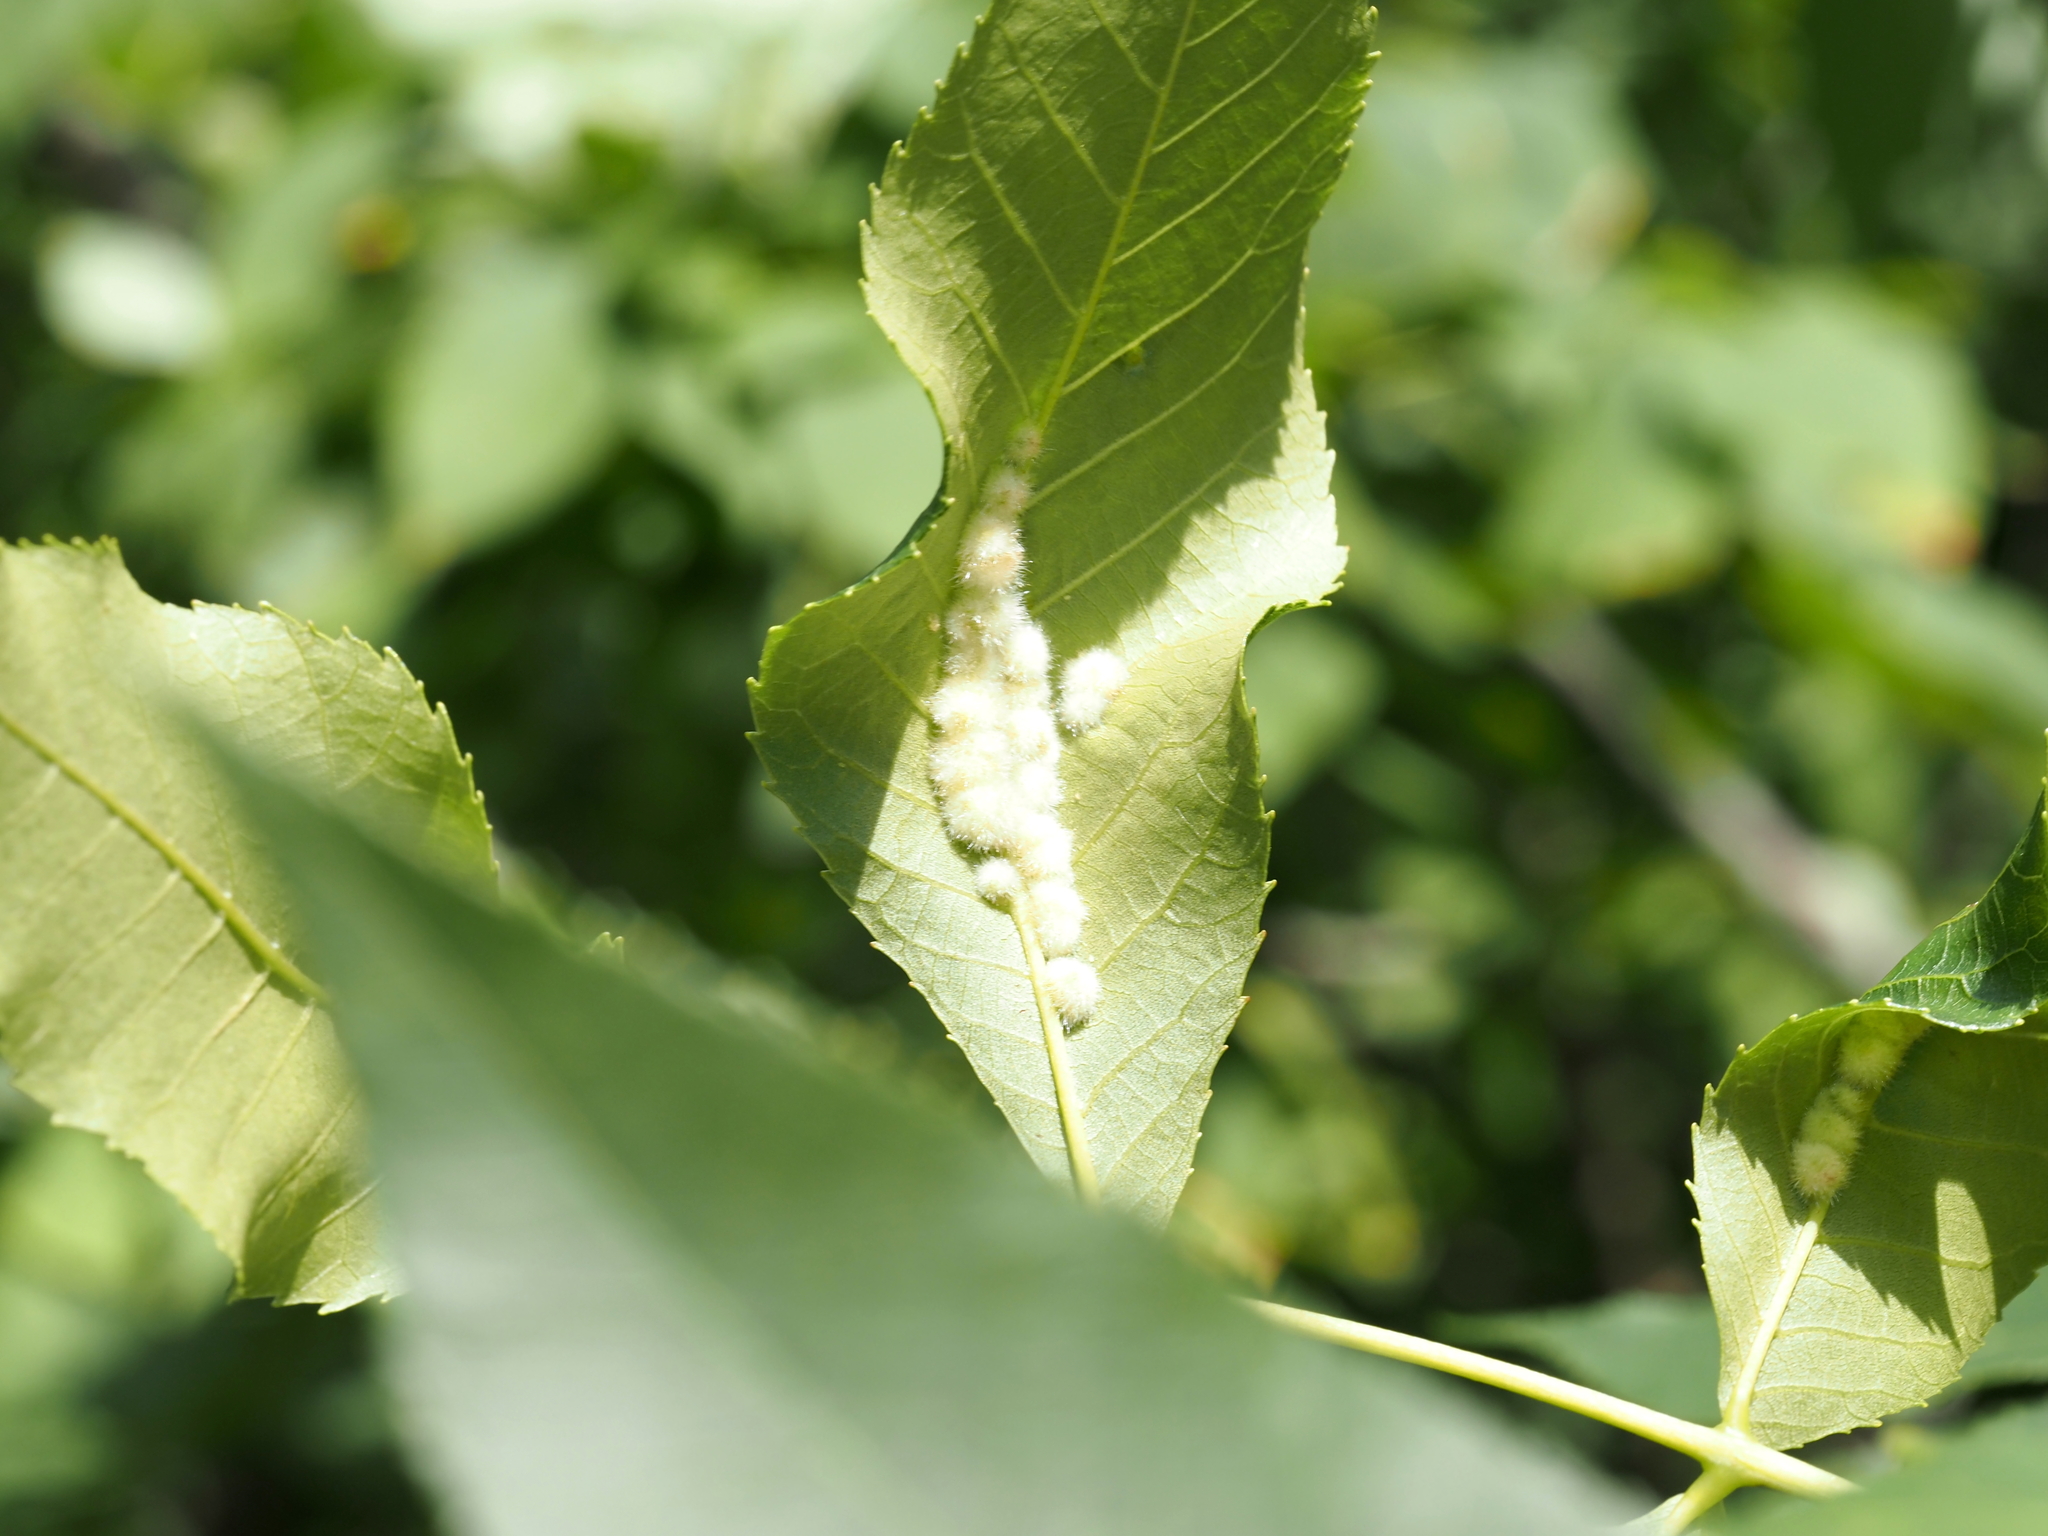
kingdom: Animalia
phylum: Arthropoda
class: Insecta
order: Diptera
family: Cecidomyiidae
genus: Caryomyia
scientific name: Caryomyia aggregata
